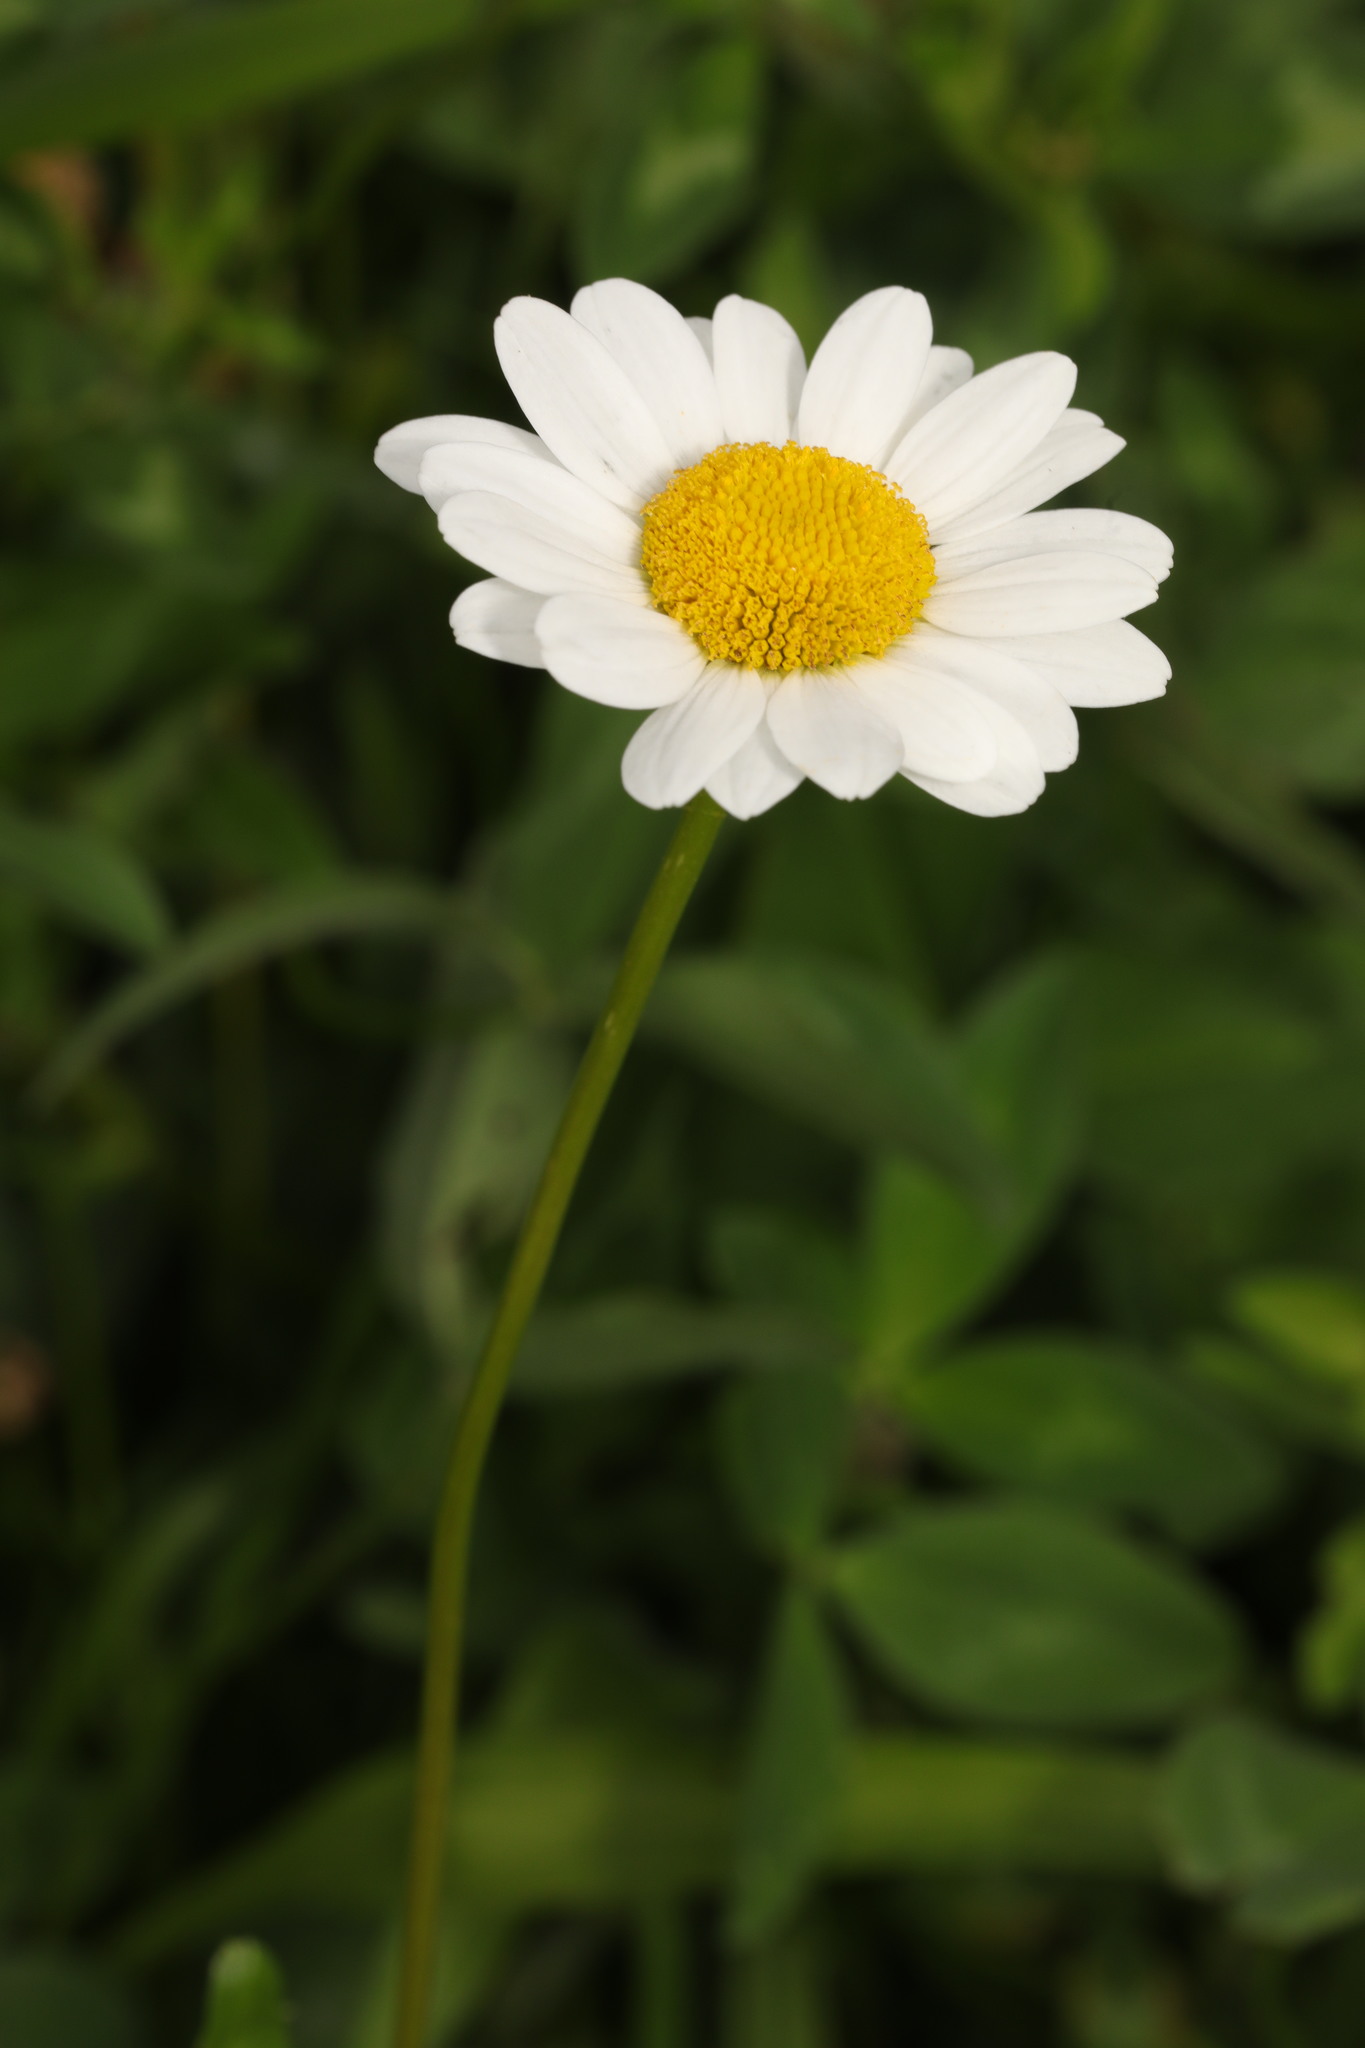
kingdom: Plantae
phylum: Tracheophyta
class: Magnoliopsida
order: Asterales
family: Asteraceae
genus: Leucanthemum
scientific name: Leucanthemum vulgare
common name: Oxeye daisy
